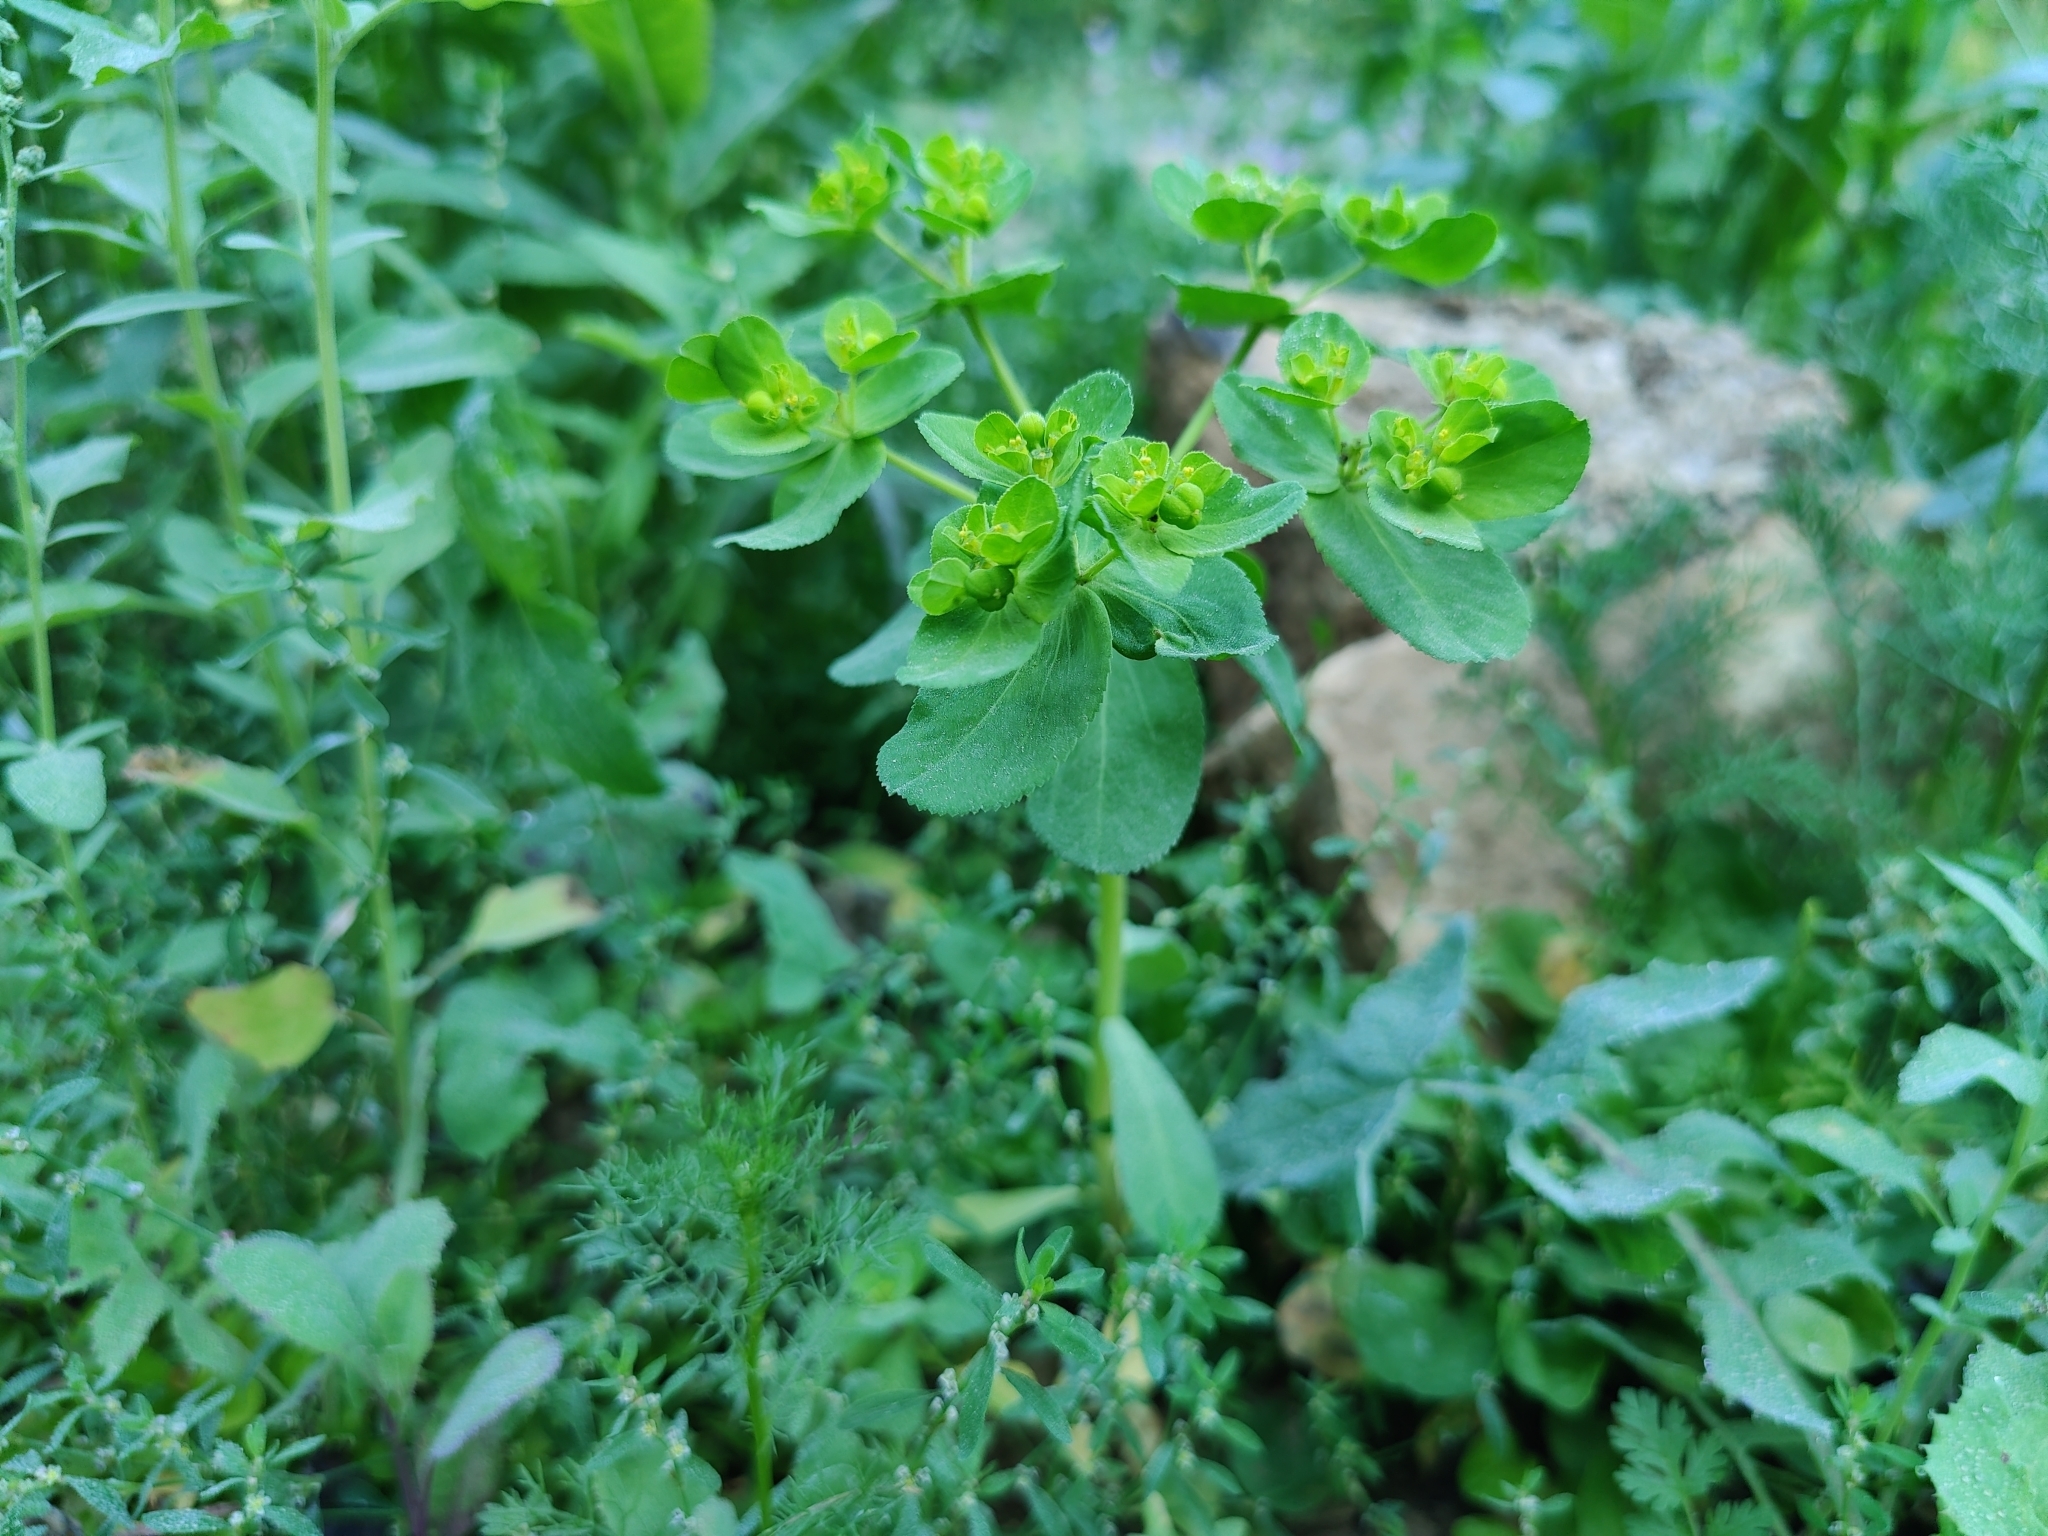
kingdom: Plantae
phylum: Tracheophyta
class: Magnoliopsida
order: Malpighiales
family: Euphorbiaceae
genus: Euphorbia
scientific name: Euphorbia helioscopia
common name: Sun spurge
